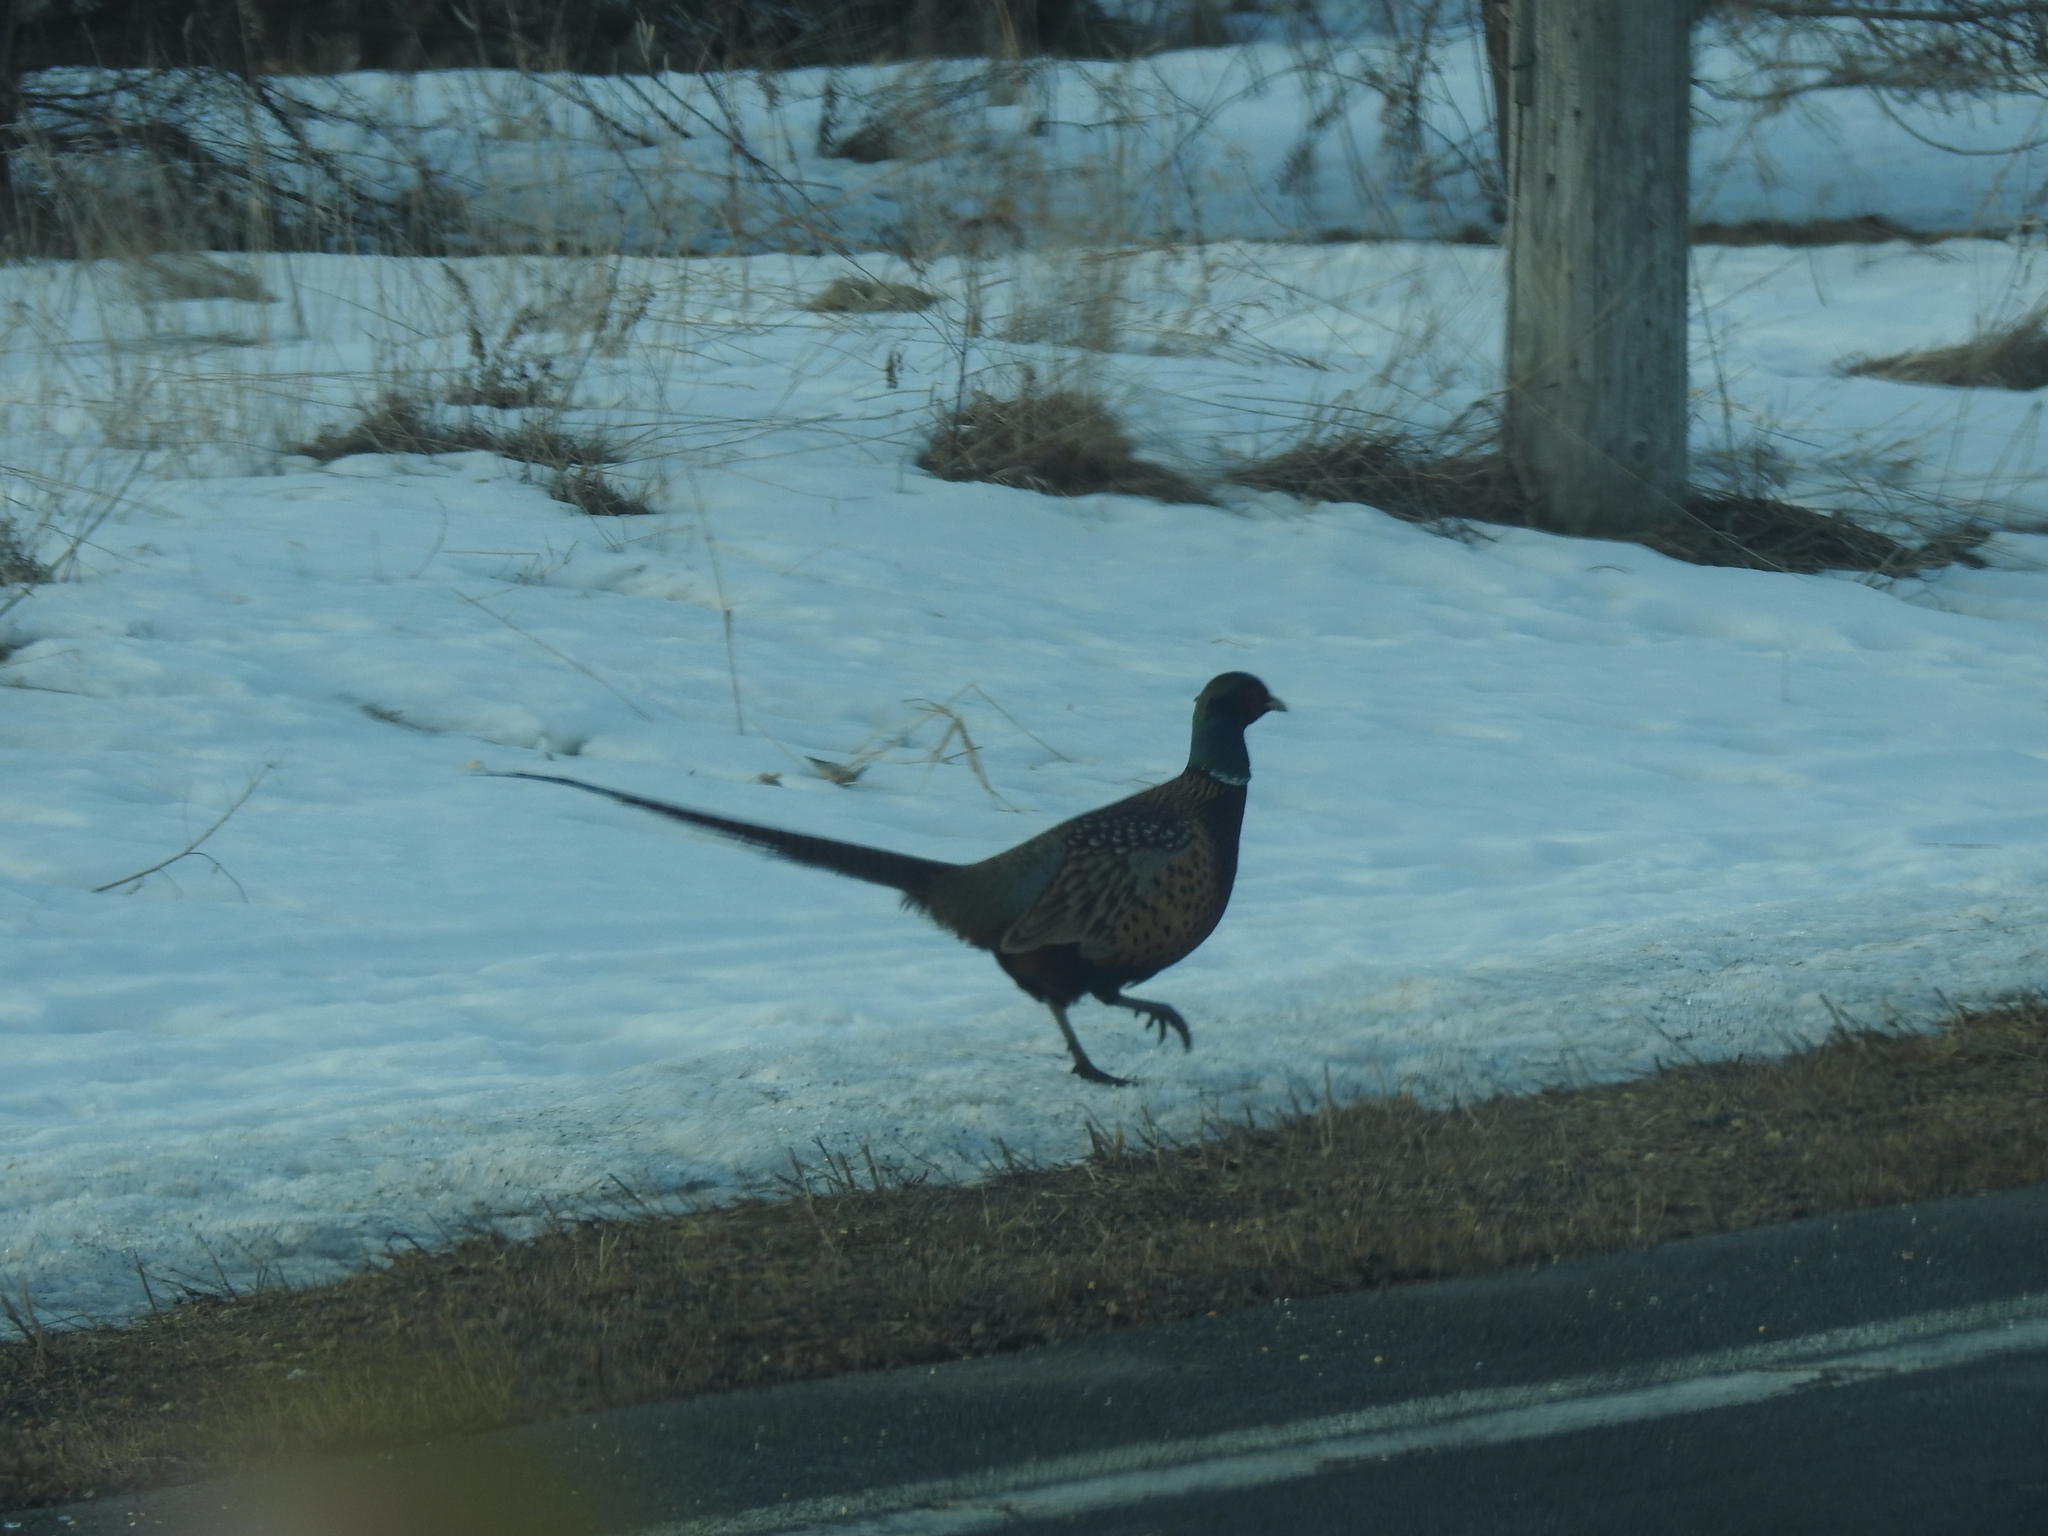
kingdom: Animalia
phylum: Chordata
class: Aves
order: Galliformes
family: Phasianidae
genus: Phasianus
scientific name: Phasianus colchicus
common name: Common pheasant
